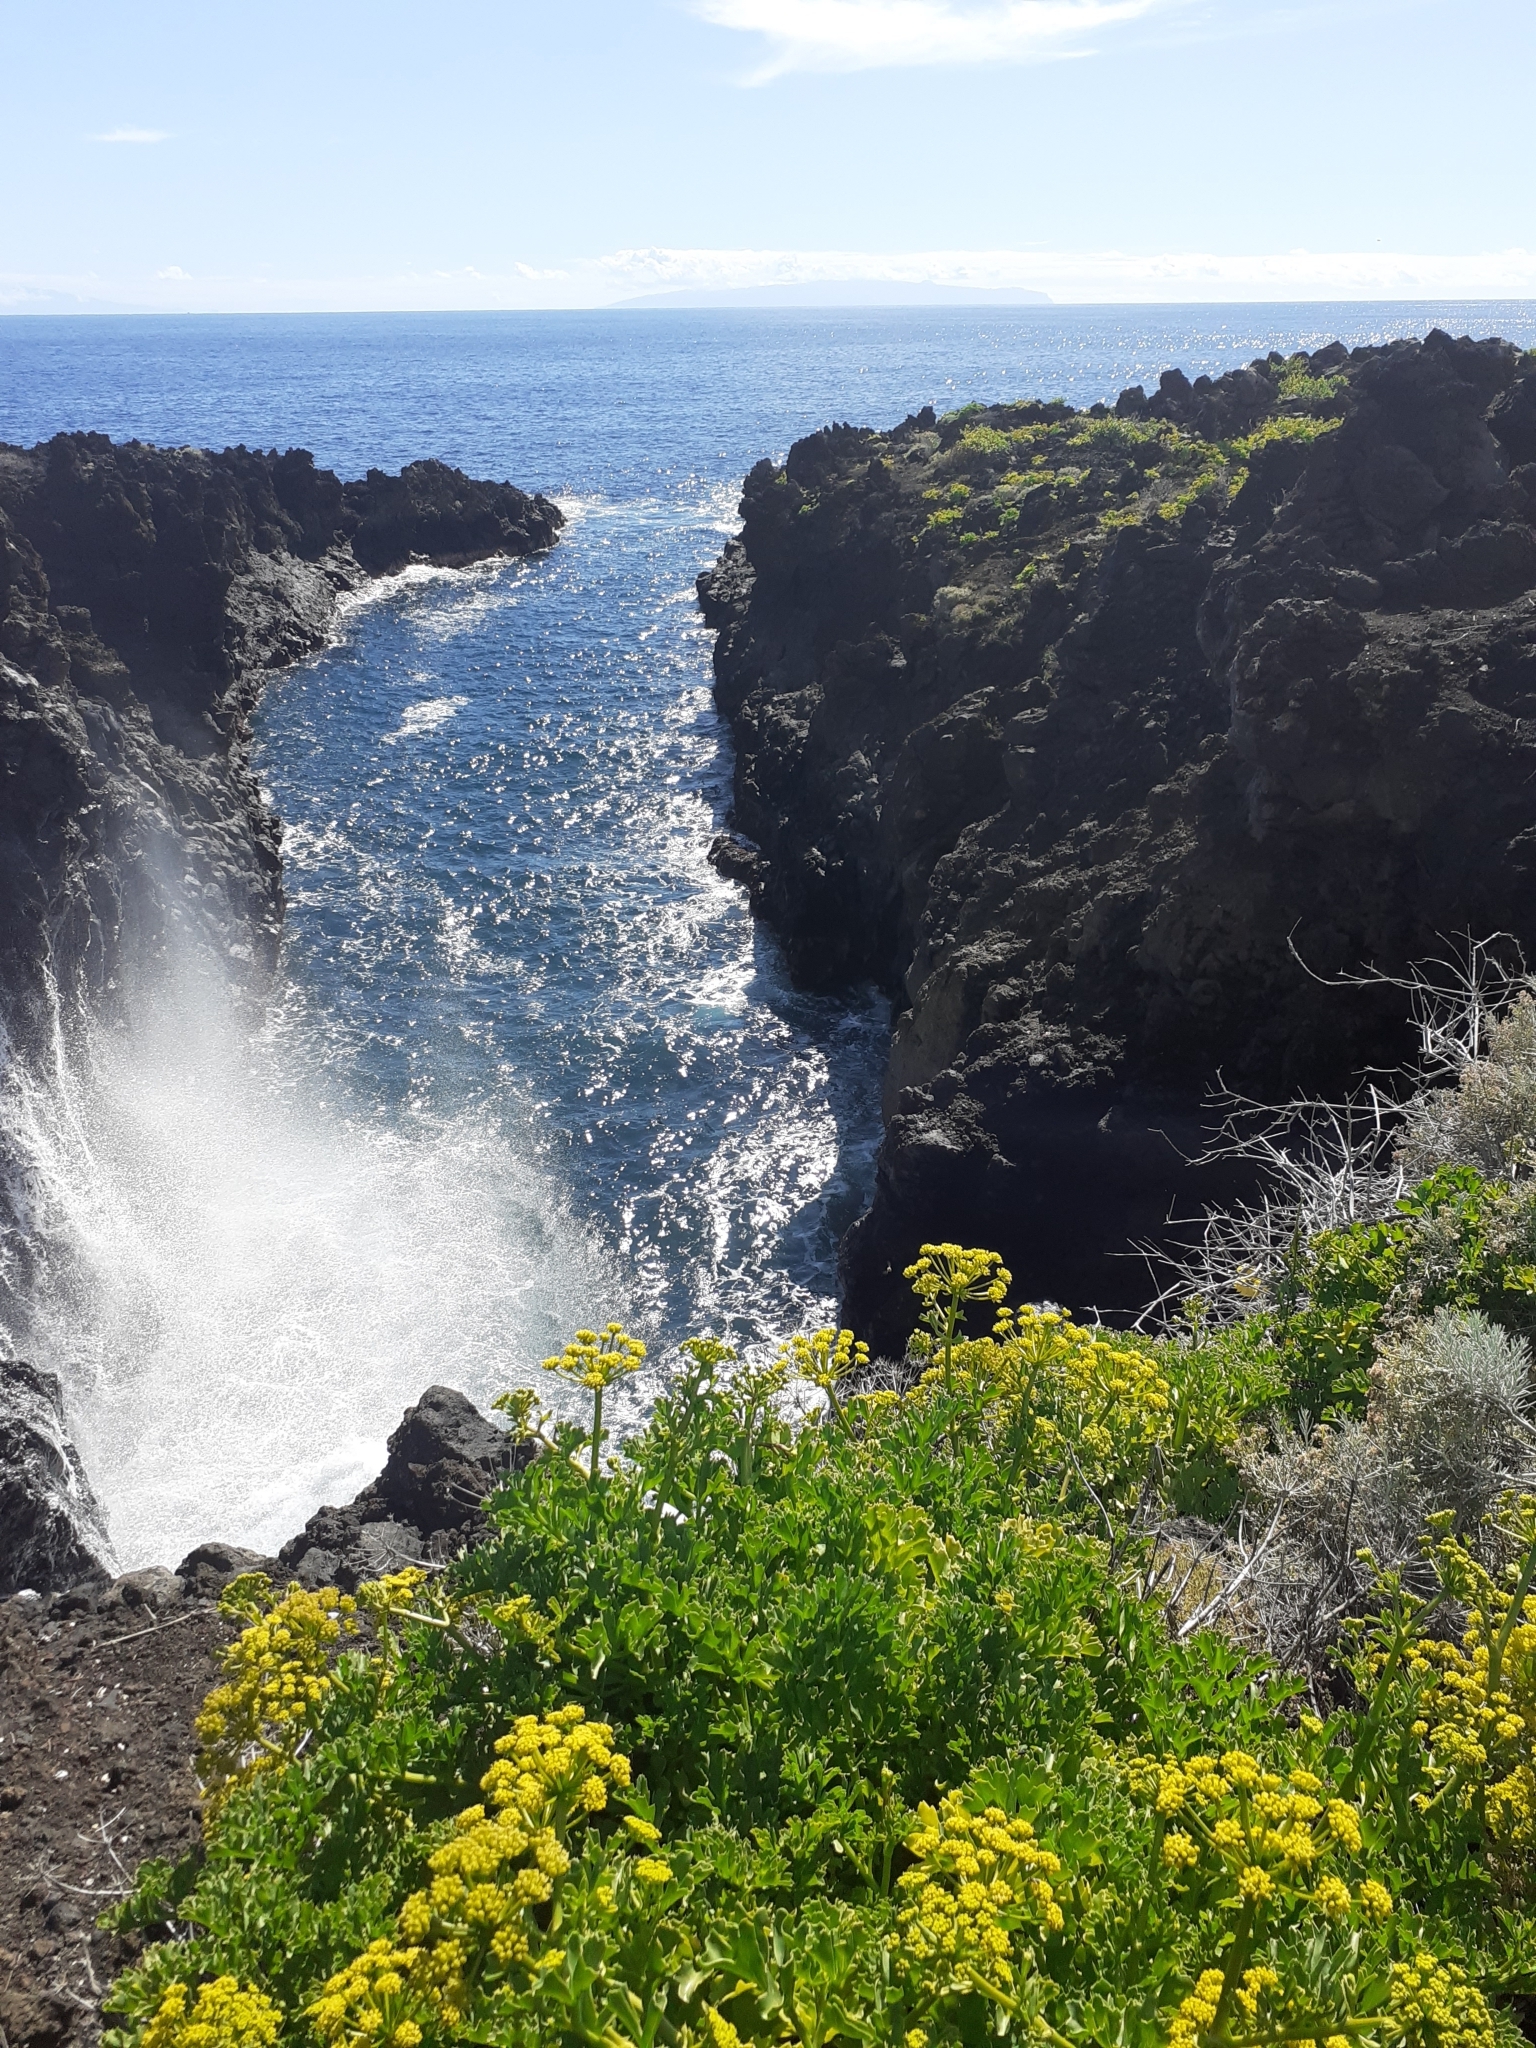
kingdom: Plantae
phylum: Tracheophyta
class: Magnoliopsida
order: Apiales
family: Apiaceae
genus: Astydamia
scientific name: Astydamia latifolia
